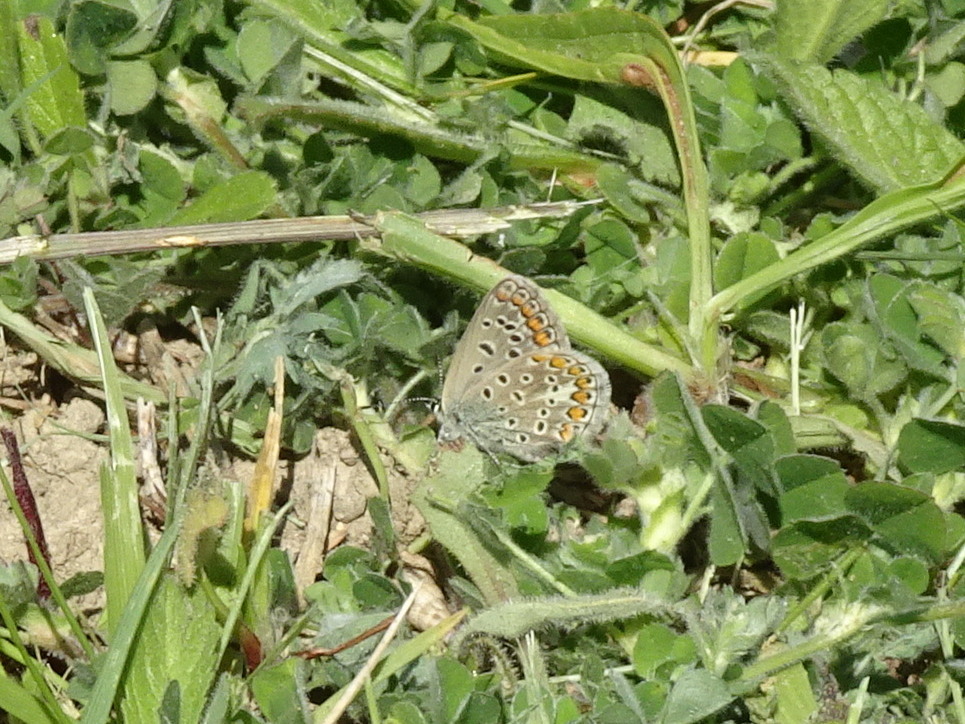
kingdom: Animalia
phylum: Arthropoda
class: Insecta
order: Lepidoptera
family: Lycaenidae
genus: Polyommatus
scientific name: Polyommatus icarus
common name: Common blue
